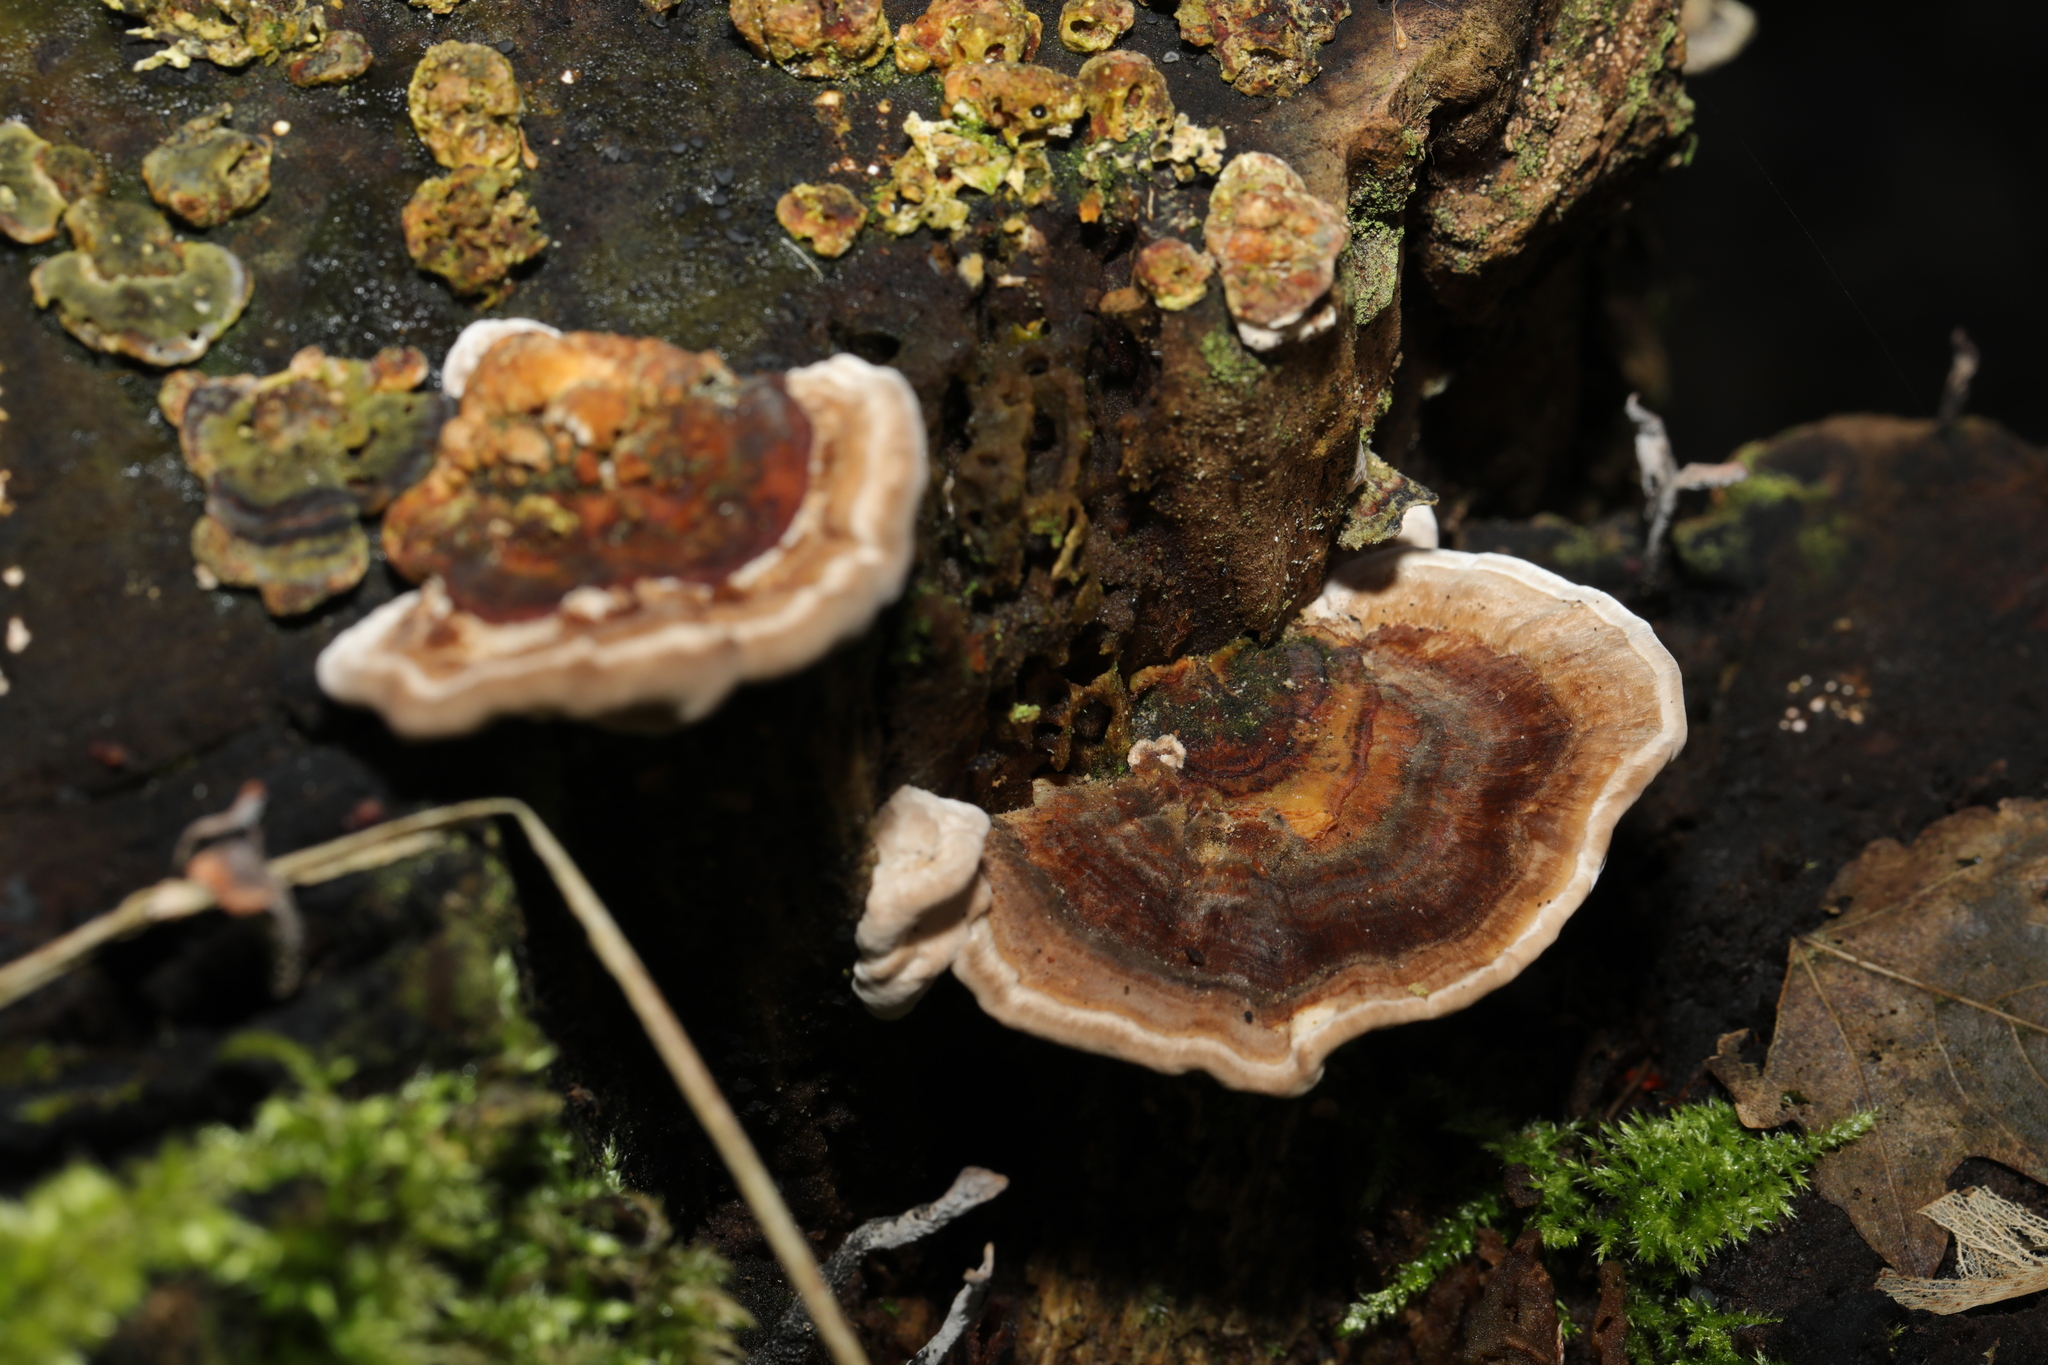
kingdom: Fungi
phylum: Basidiomycota
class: Agaricomycetes
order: Polyporales
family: Polyporaceae
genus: Trametes
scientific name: Trametes versicolor
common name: Turkeytail
